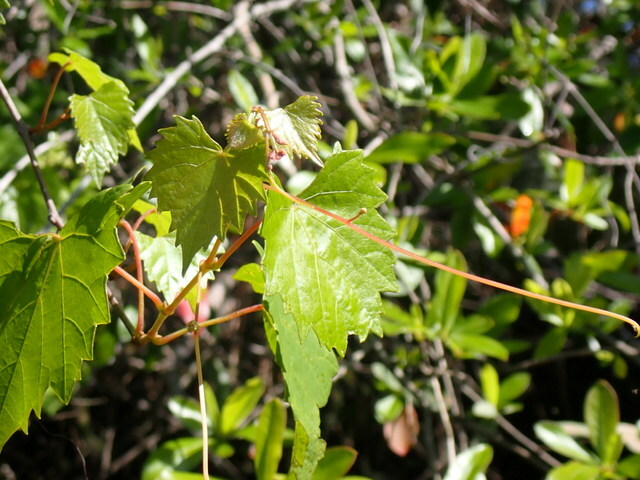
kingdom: Plantae
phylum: Tracheophyta
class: Magnoliopsida
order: Vitales
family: Vitaceae
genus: Vitis
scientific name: Vitis rotundifolia
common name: Muscadine grape
